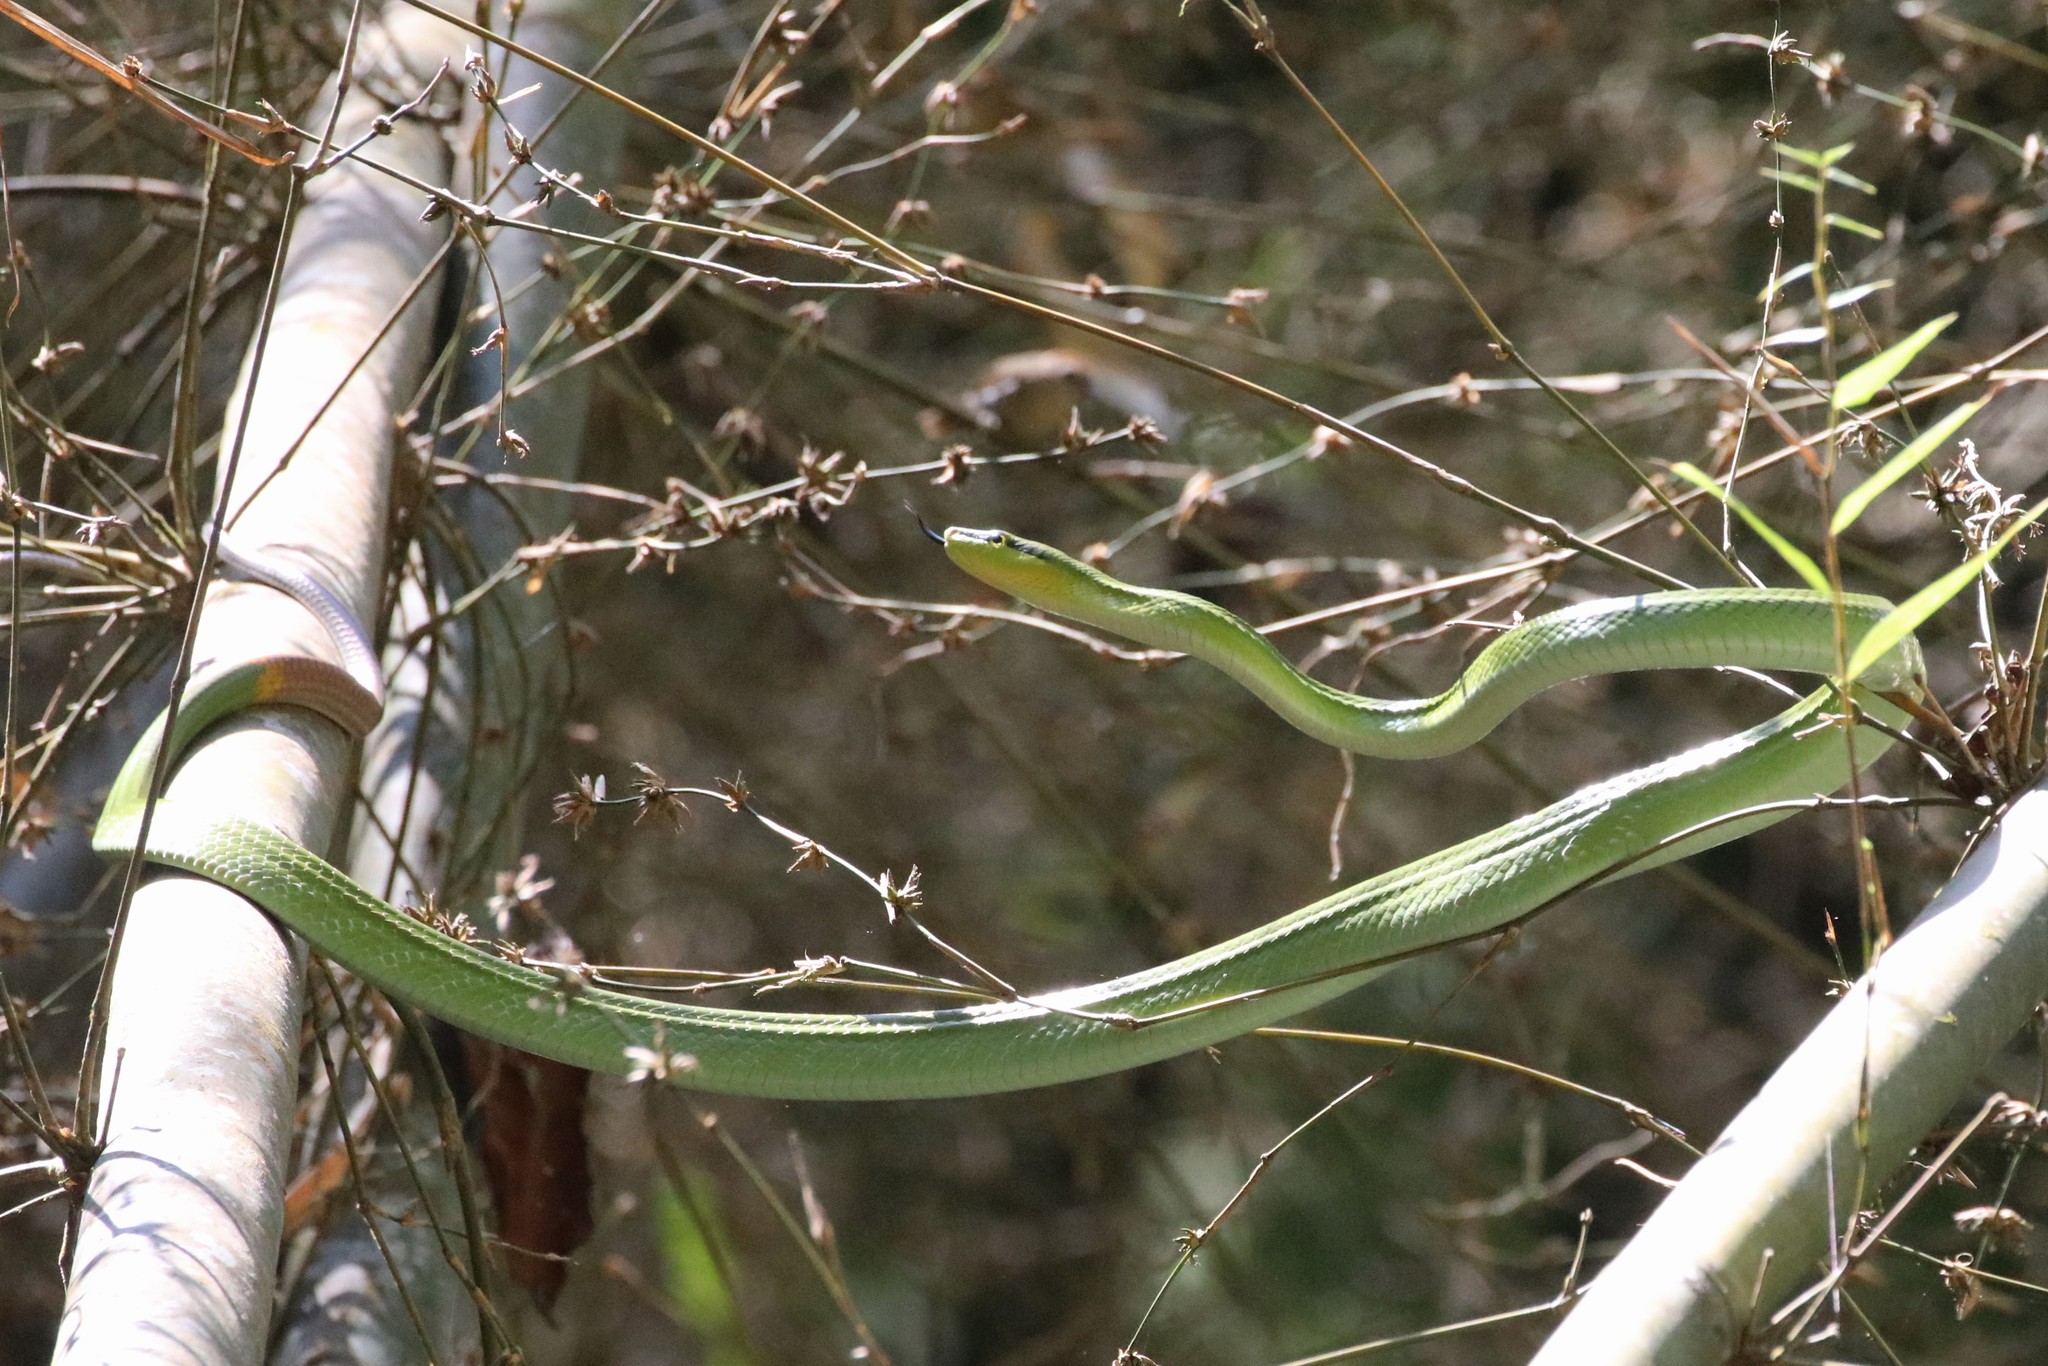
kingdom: Animalia
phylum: Chordata
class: Squamata
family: Colubridae
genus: Gonyosoma
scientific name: Gonyosoma oxycephalum
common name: Red-tailed racer
